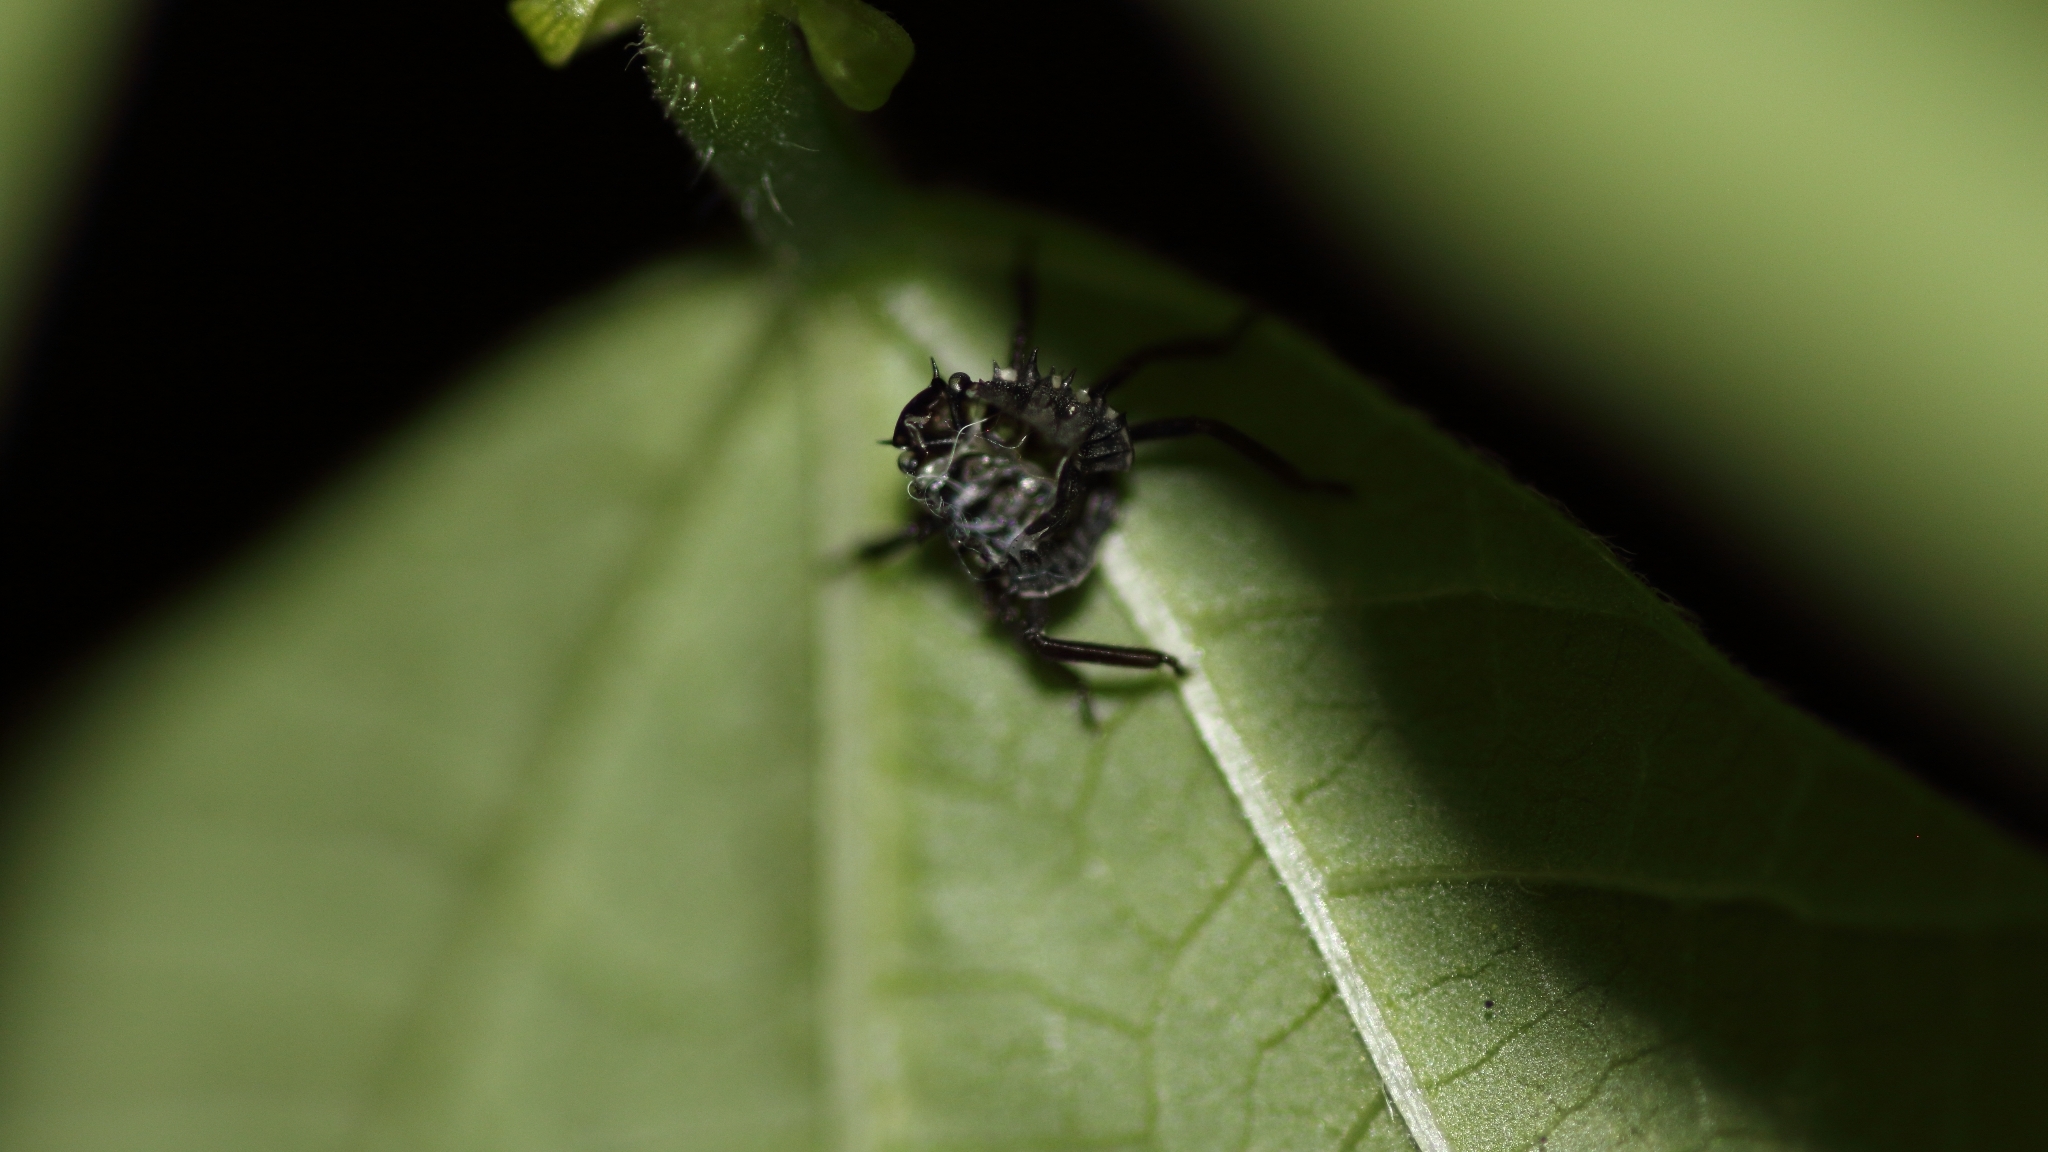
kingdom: Animalia
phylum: Arthropoda
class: Insecta
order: Hemiptera
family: Pentatomidae
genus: Halyomorpha
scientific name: Halyomorpha halys
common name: Brown marmorated stink bug
